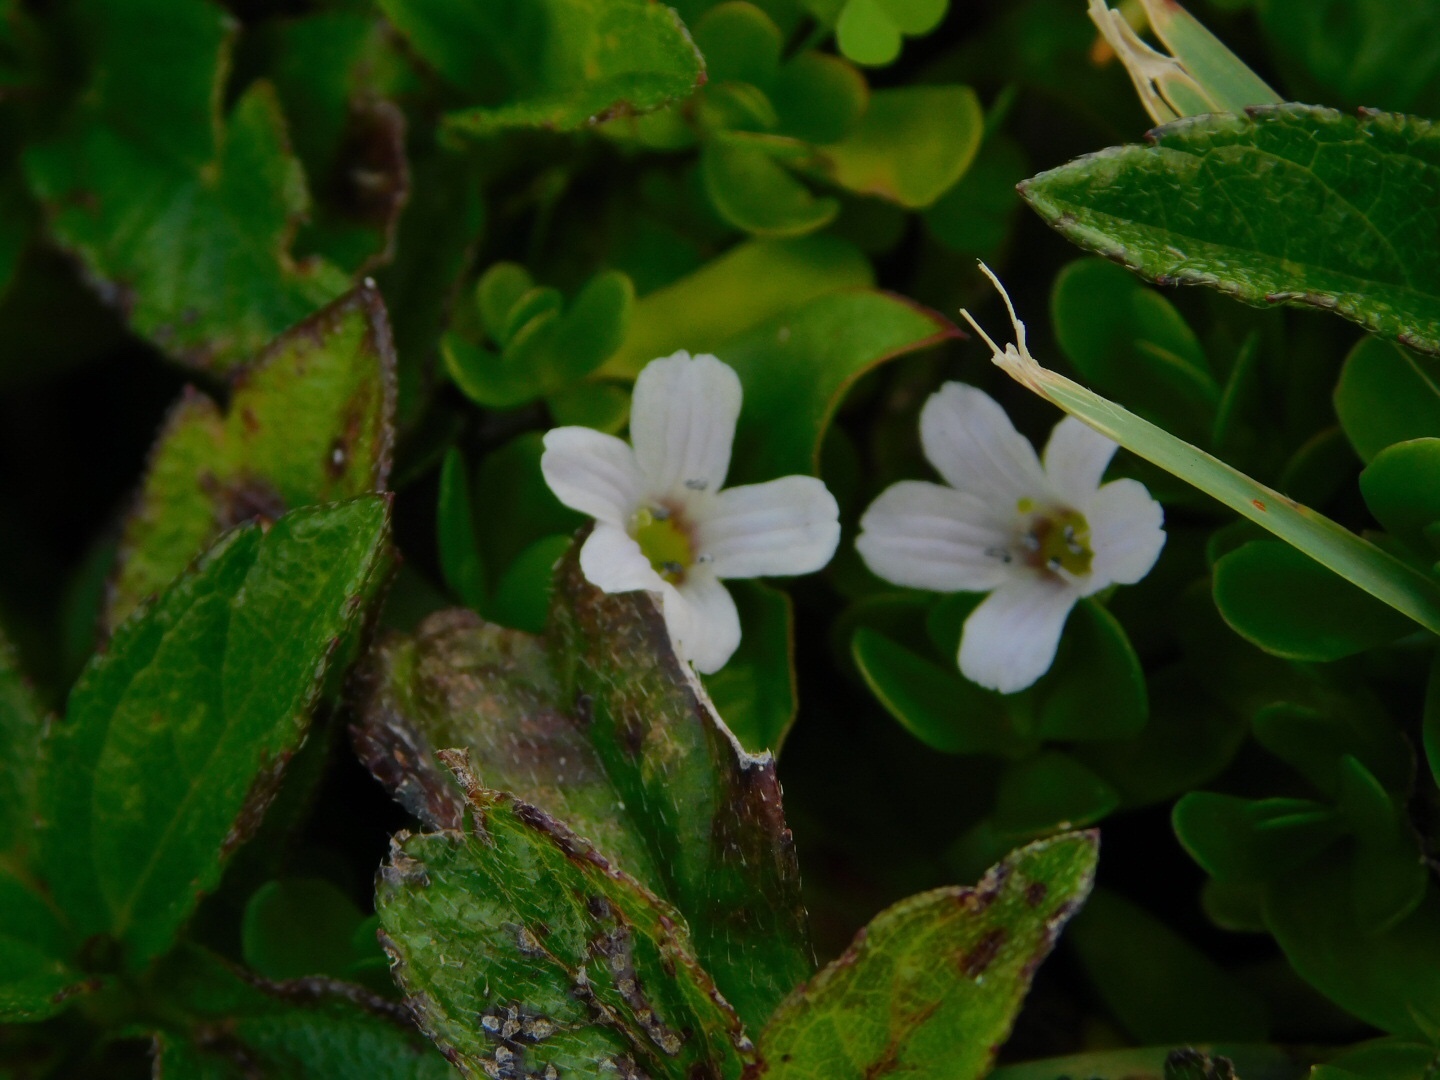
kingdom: Plantae
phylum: Tracheophyta
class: Magnoliopsida
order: Lamiales
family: Plantaginaceae
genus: Bacopa
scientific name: Bacopa monnieri
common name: Indian-pennywort
